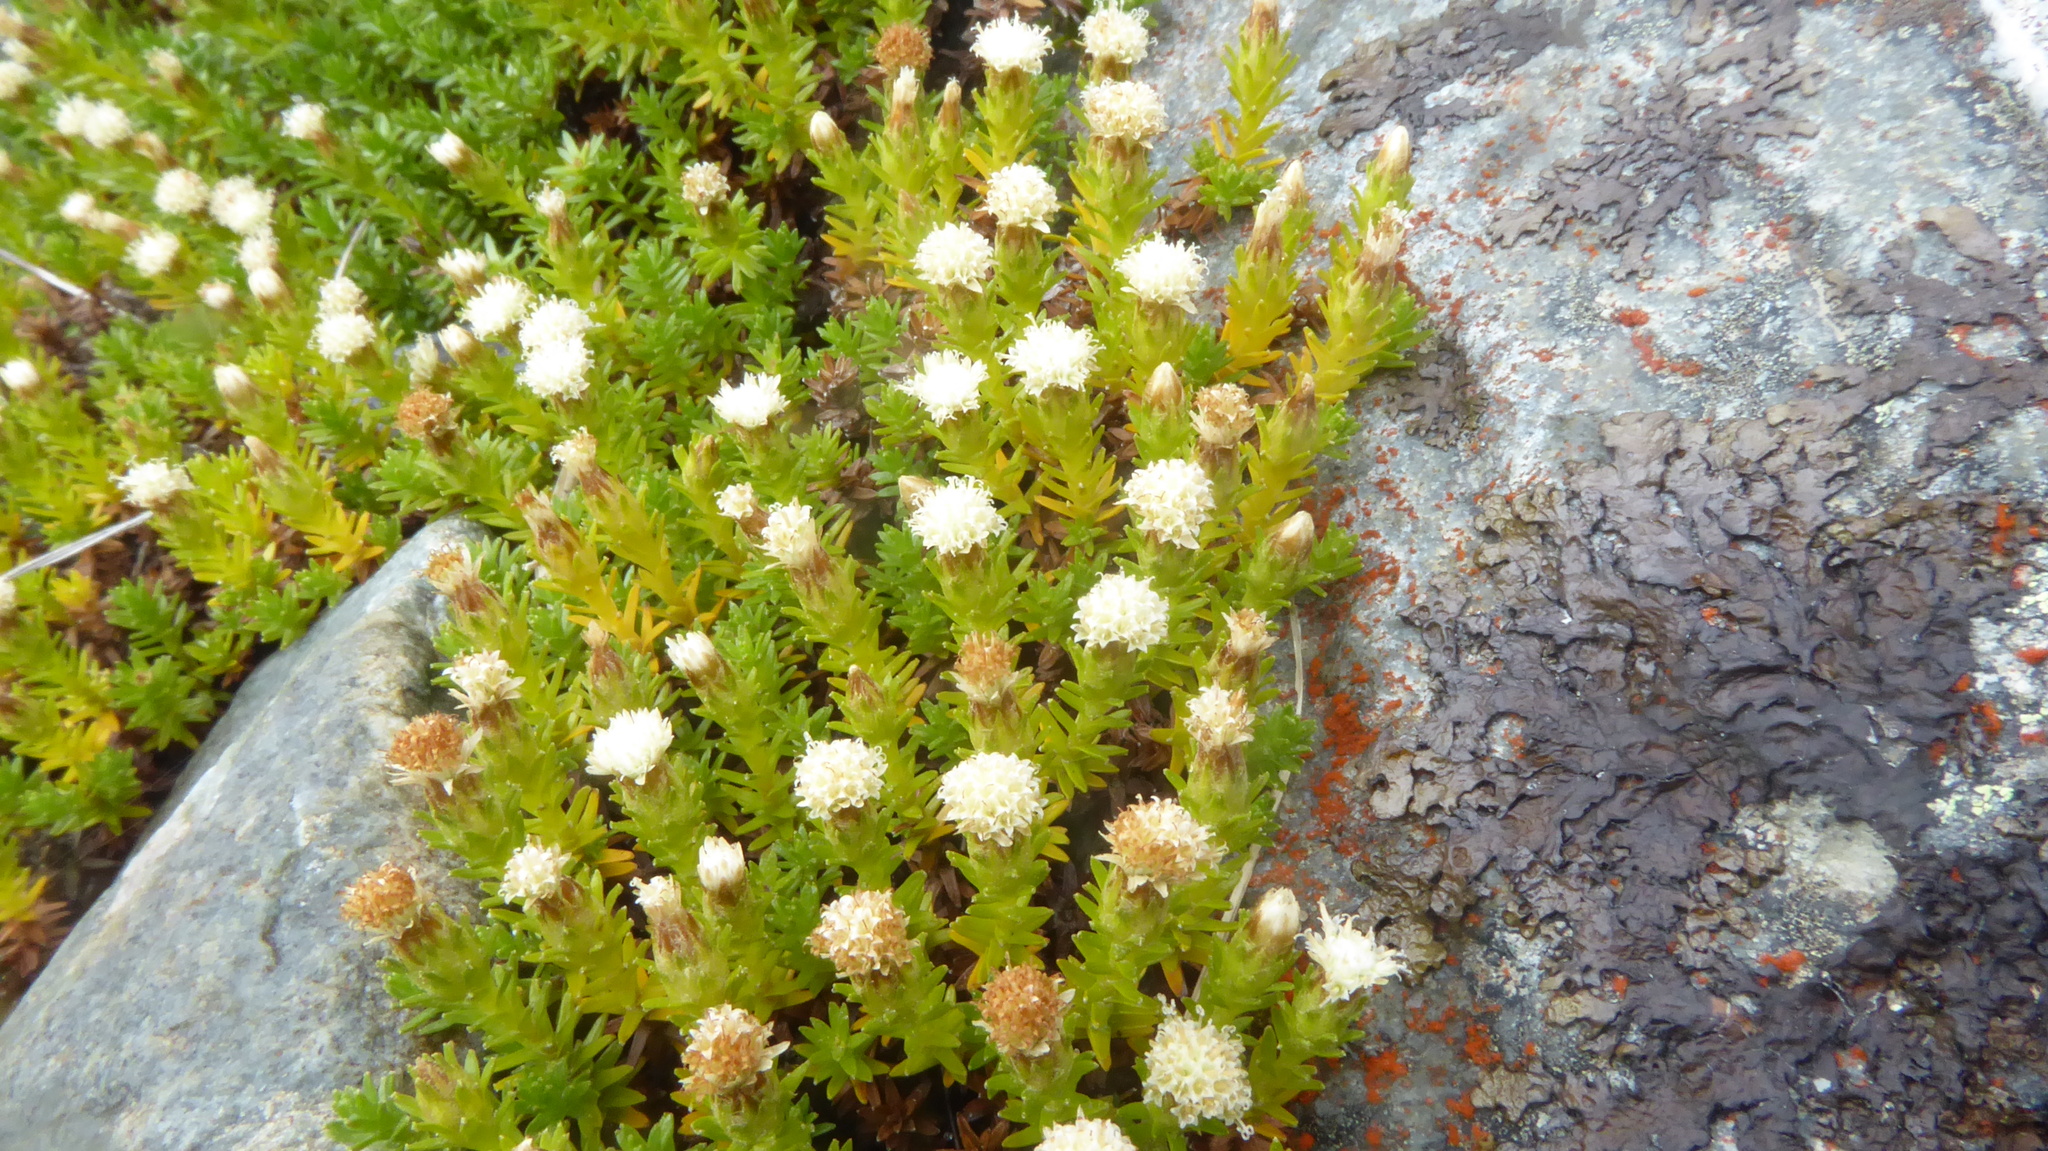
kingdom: Plantae
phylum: Tracheophyta
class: Magnoliopsida
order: Asterales
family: Asteraceae
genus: Raoulia
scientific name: Raoulia glabra
